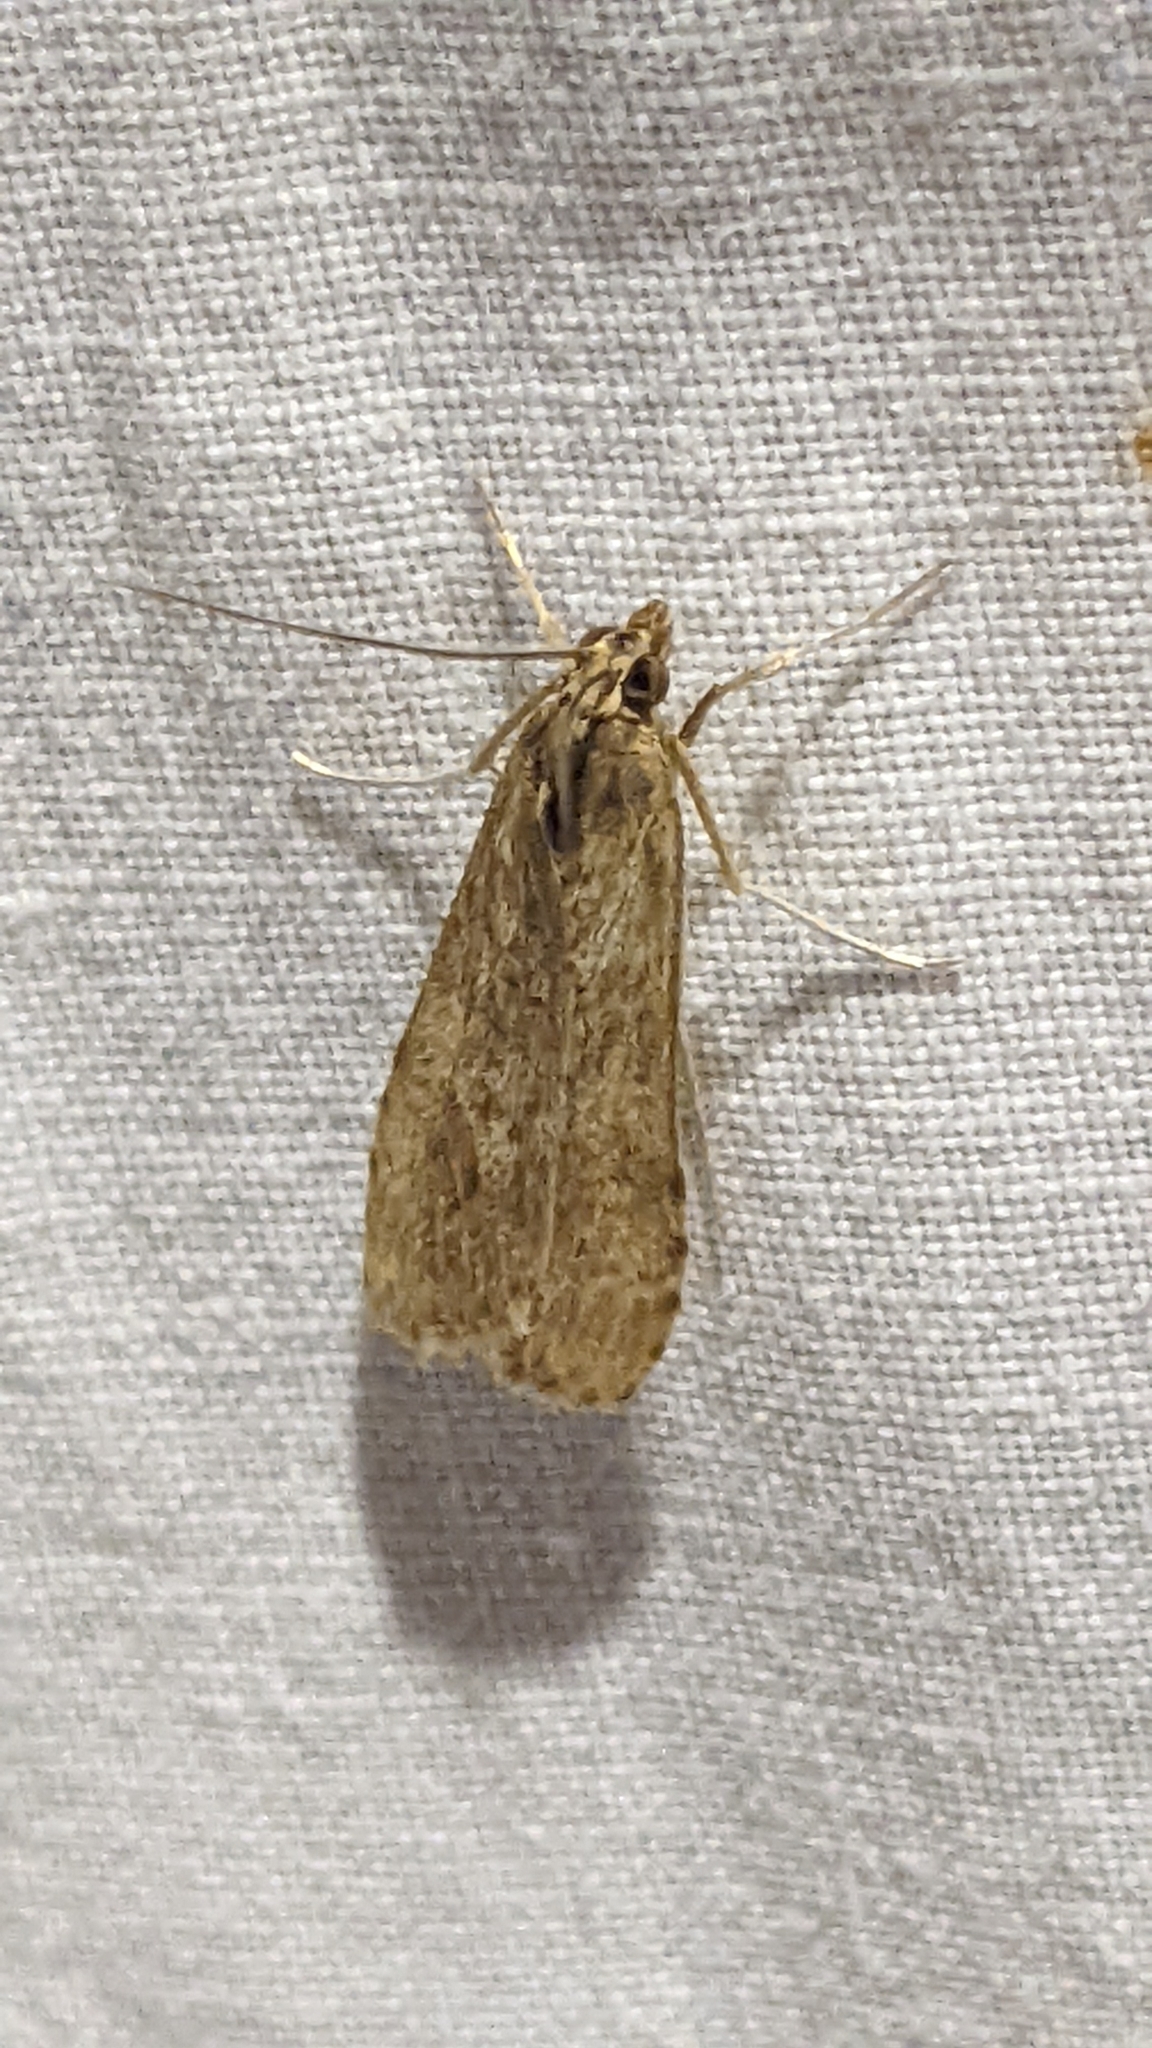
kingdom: Animalia
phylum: Arthropoda
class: Insecta
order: Lepidoptera
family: Crambidae
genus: Nomophila
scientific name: Nomophila noctuella
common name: Rush veneer
